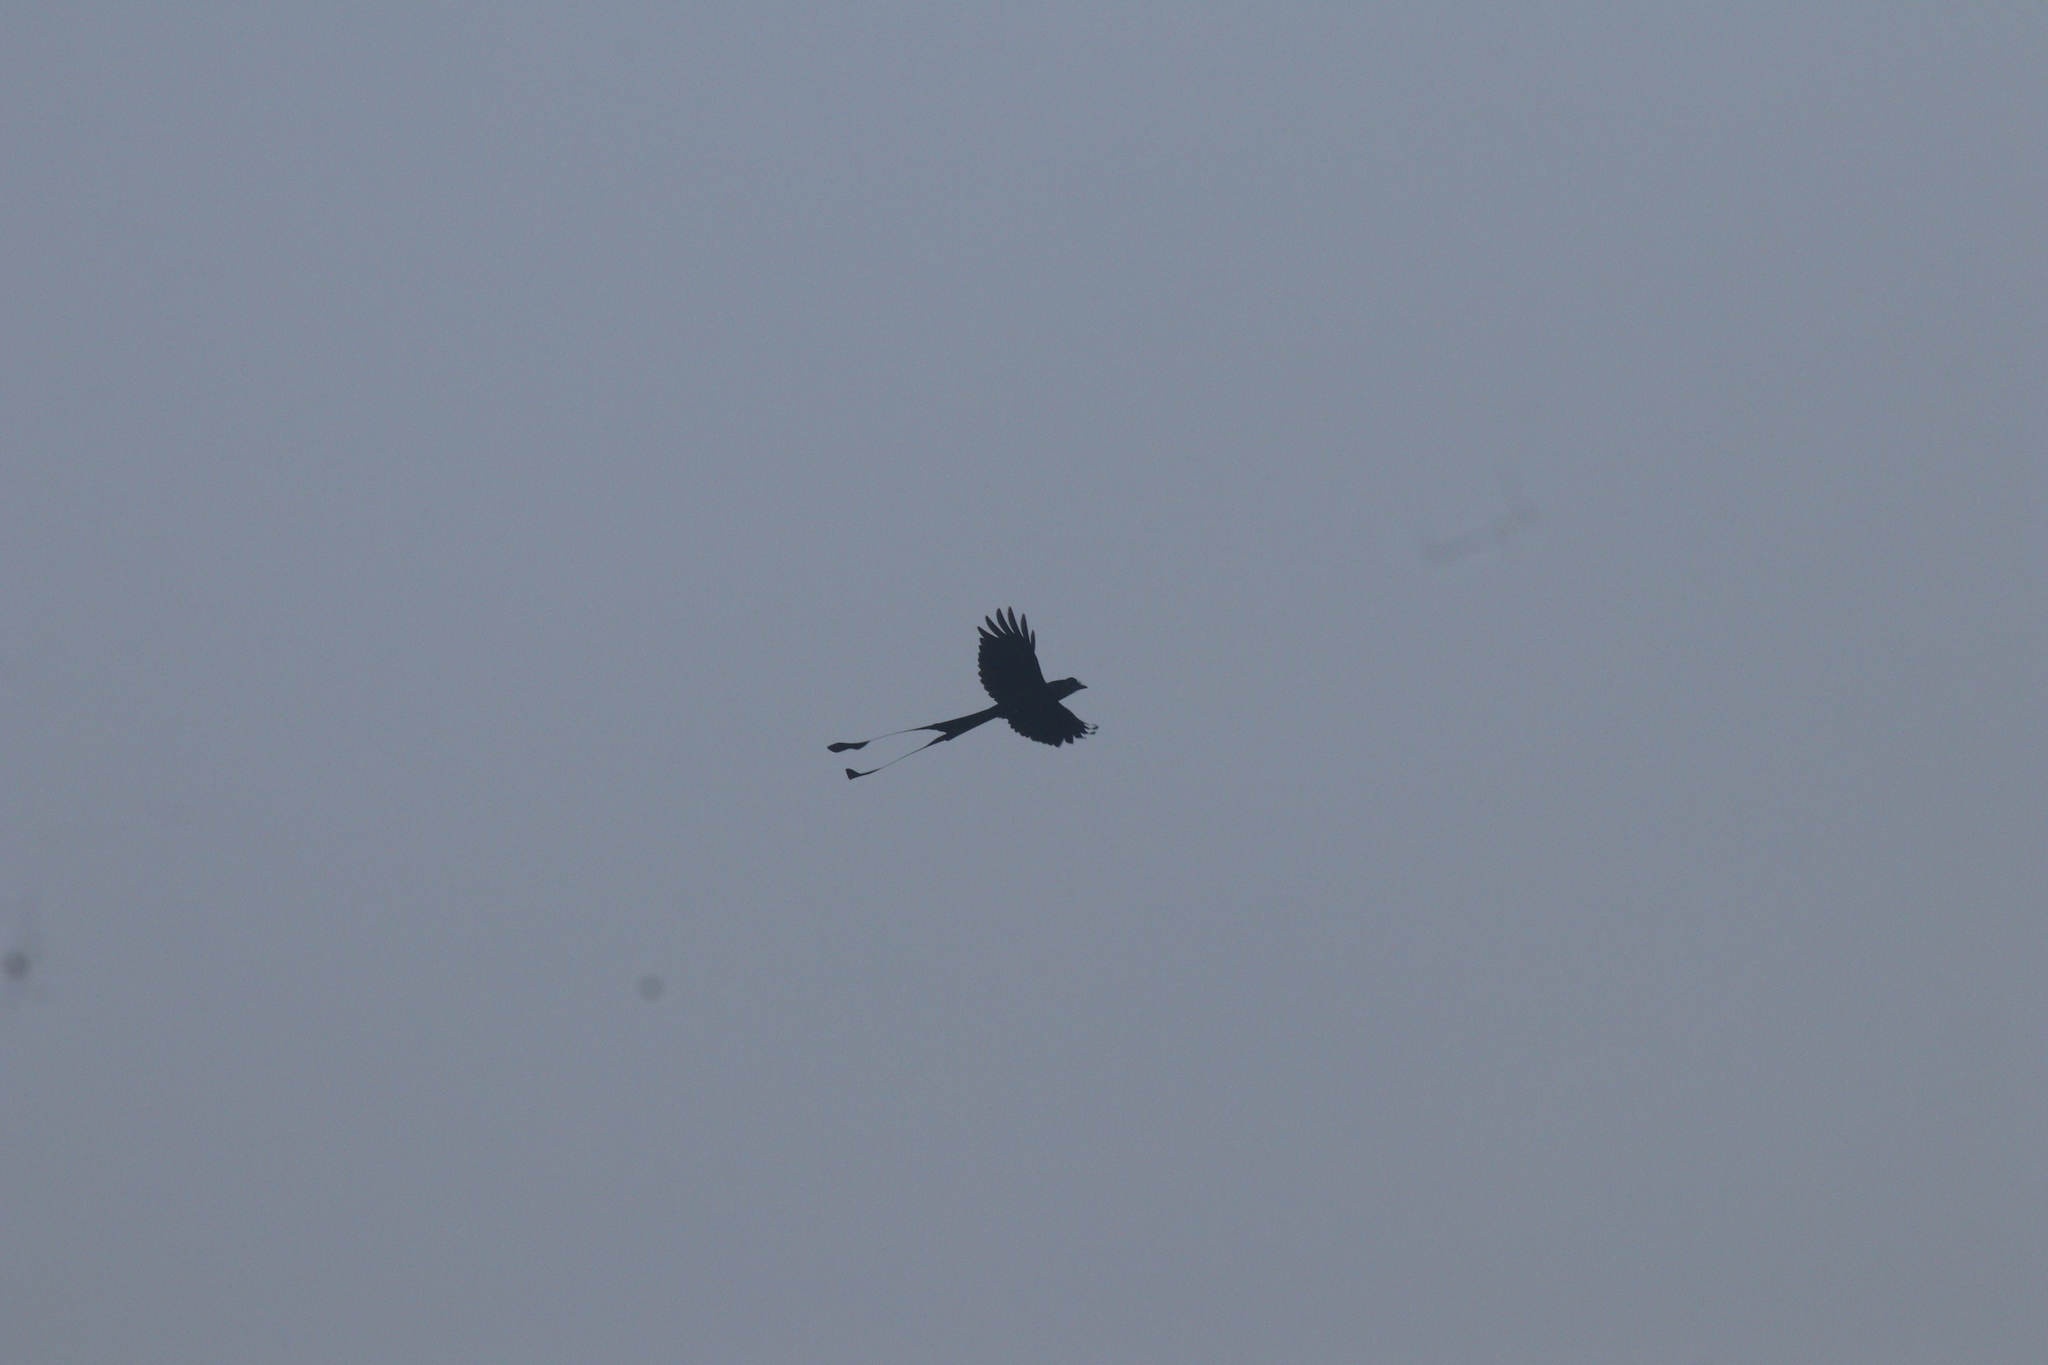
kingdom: Animalia
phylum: Chordata
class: Aves
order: Passeriformes
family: Dicruridae
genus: Dicrurus
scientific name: Dicrurus paradiseus
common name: Greater racket-tailed drongo
